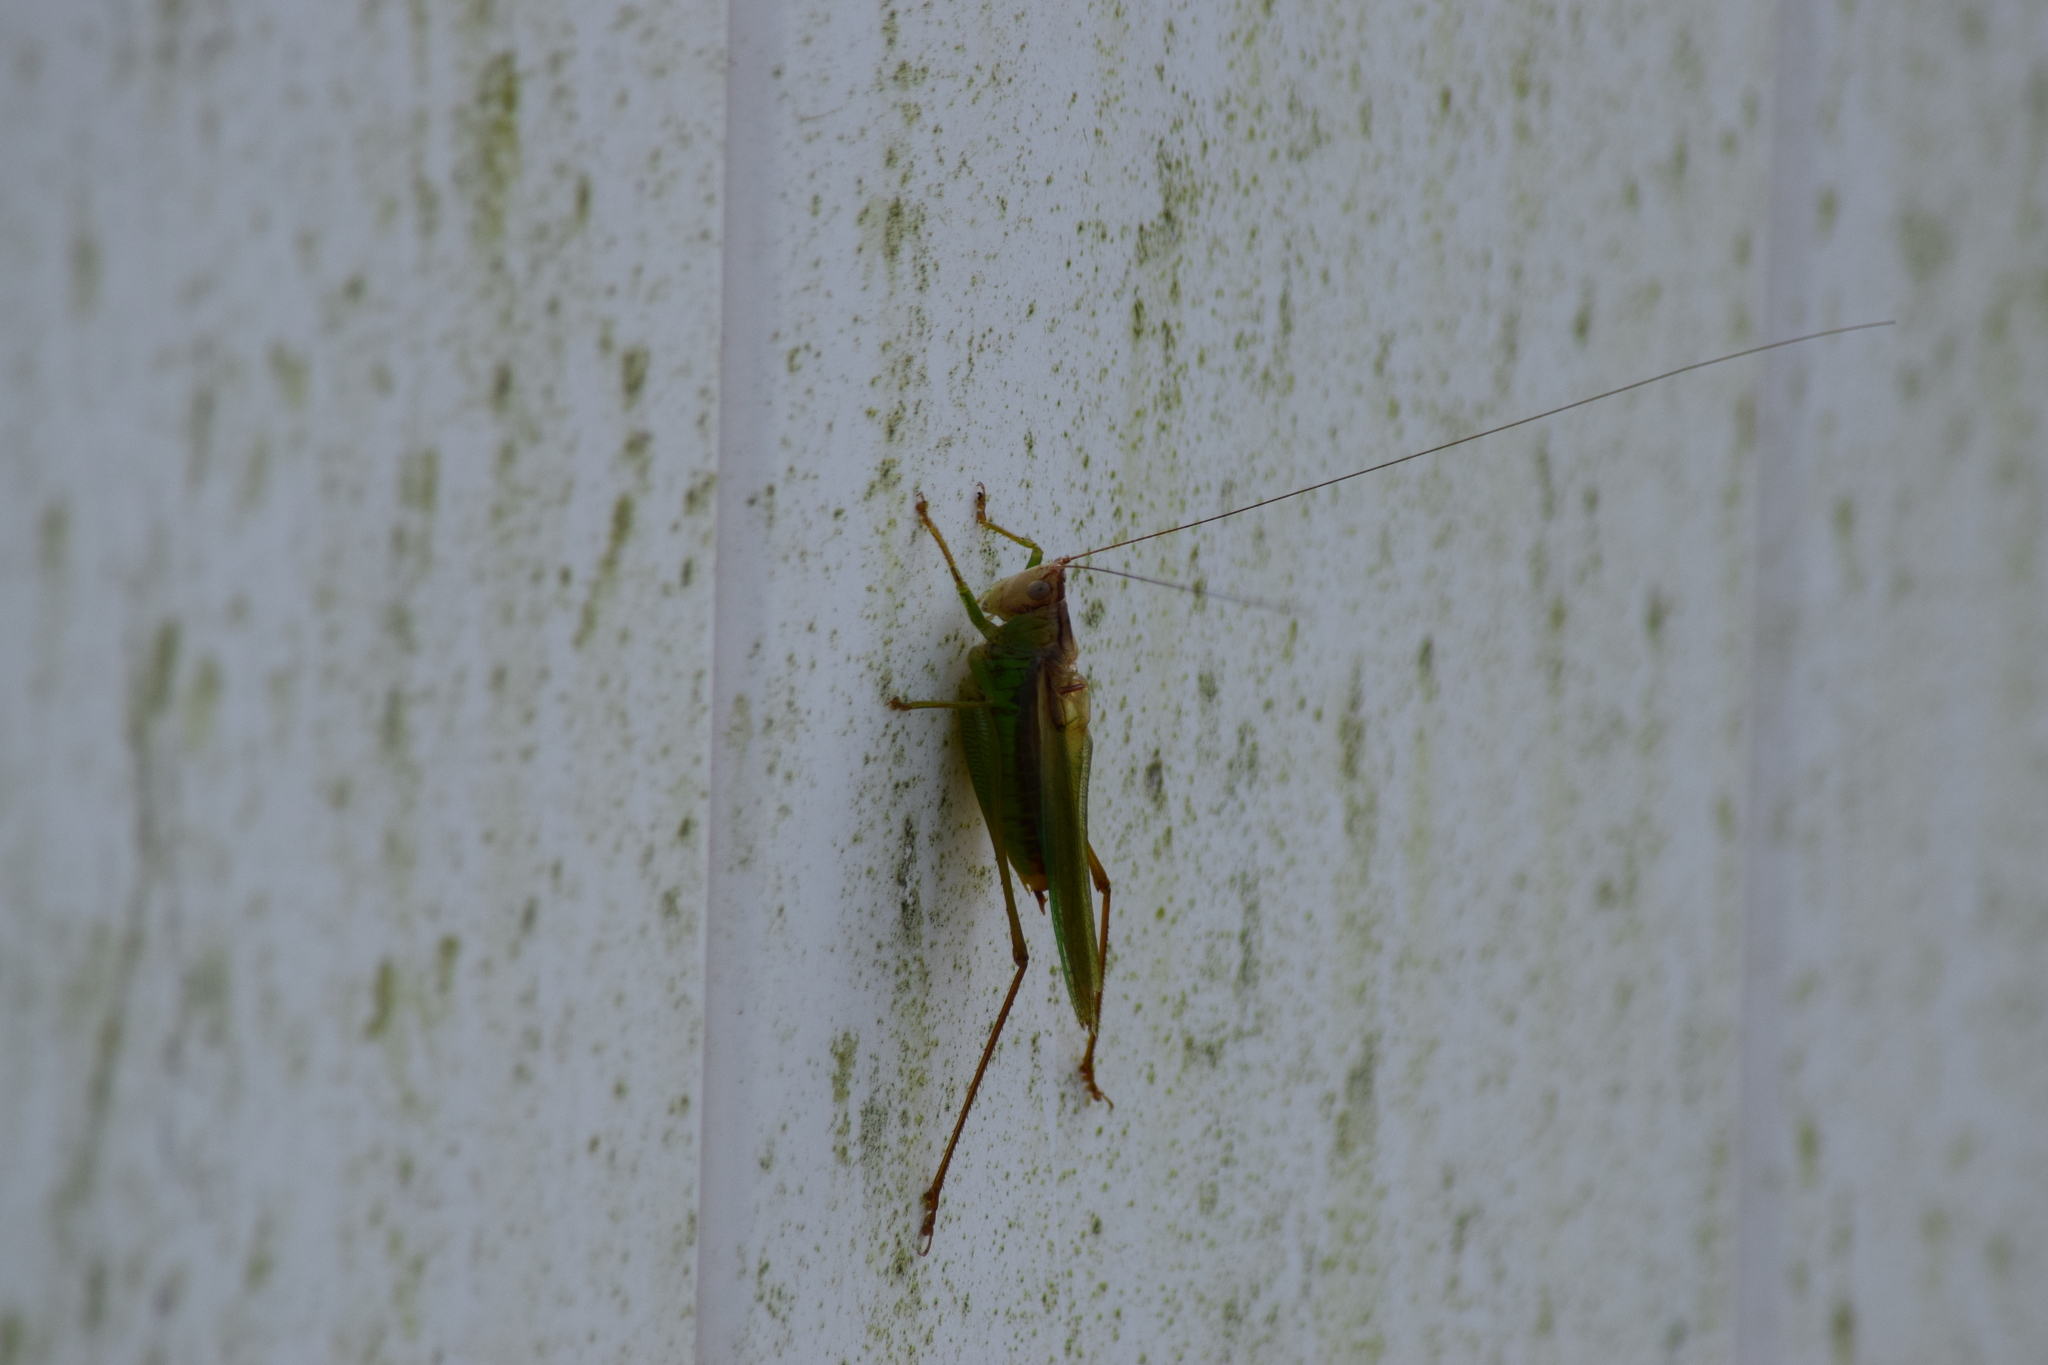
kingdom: Animalia
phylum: Arthropoda
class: Insecta
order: Orthoptera
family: Tettigoniidae
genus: Conocephalus
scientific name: Conocephalus fasciatus
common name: Slender meadow katydid
